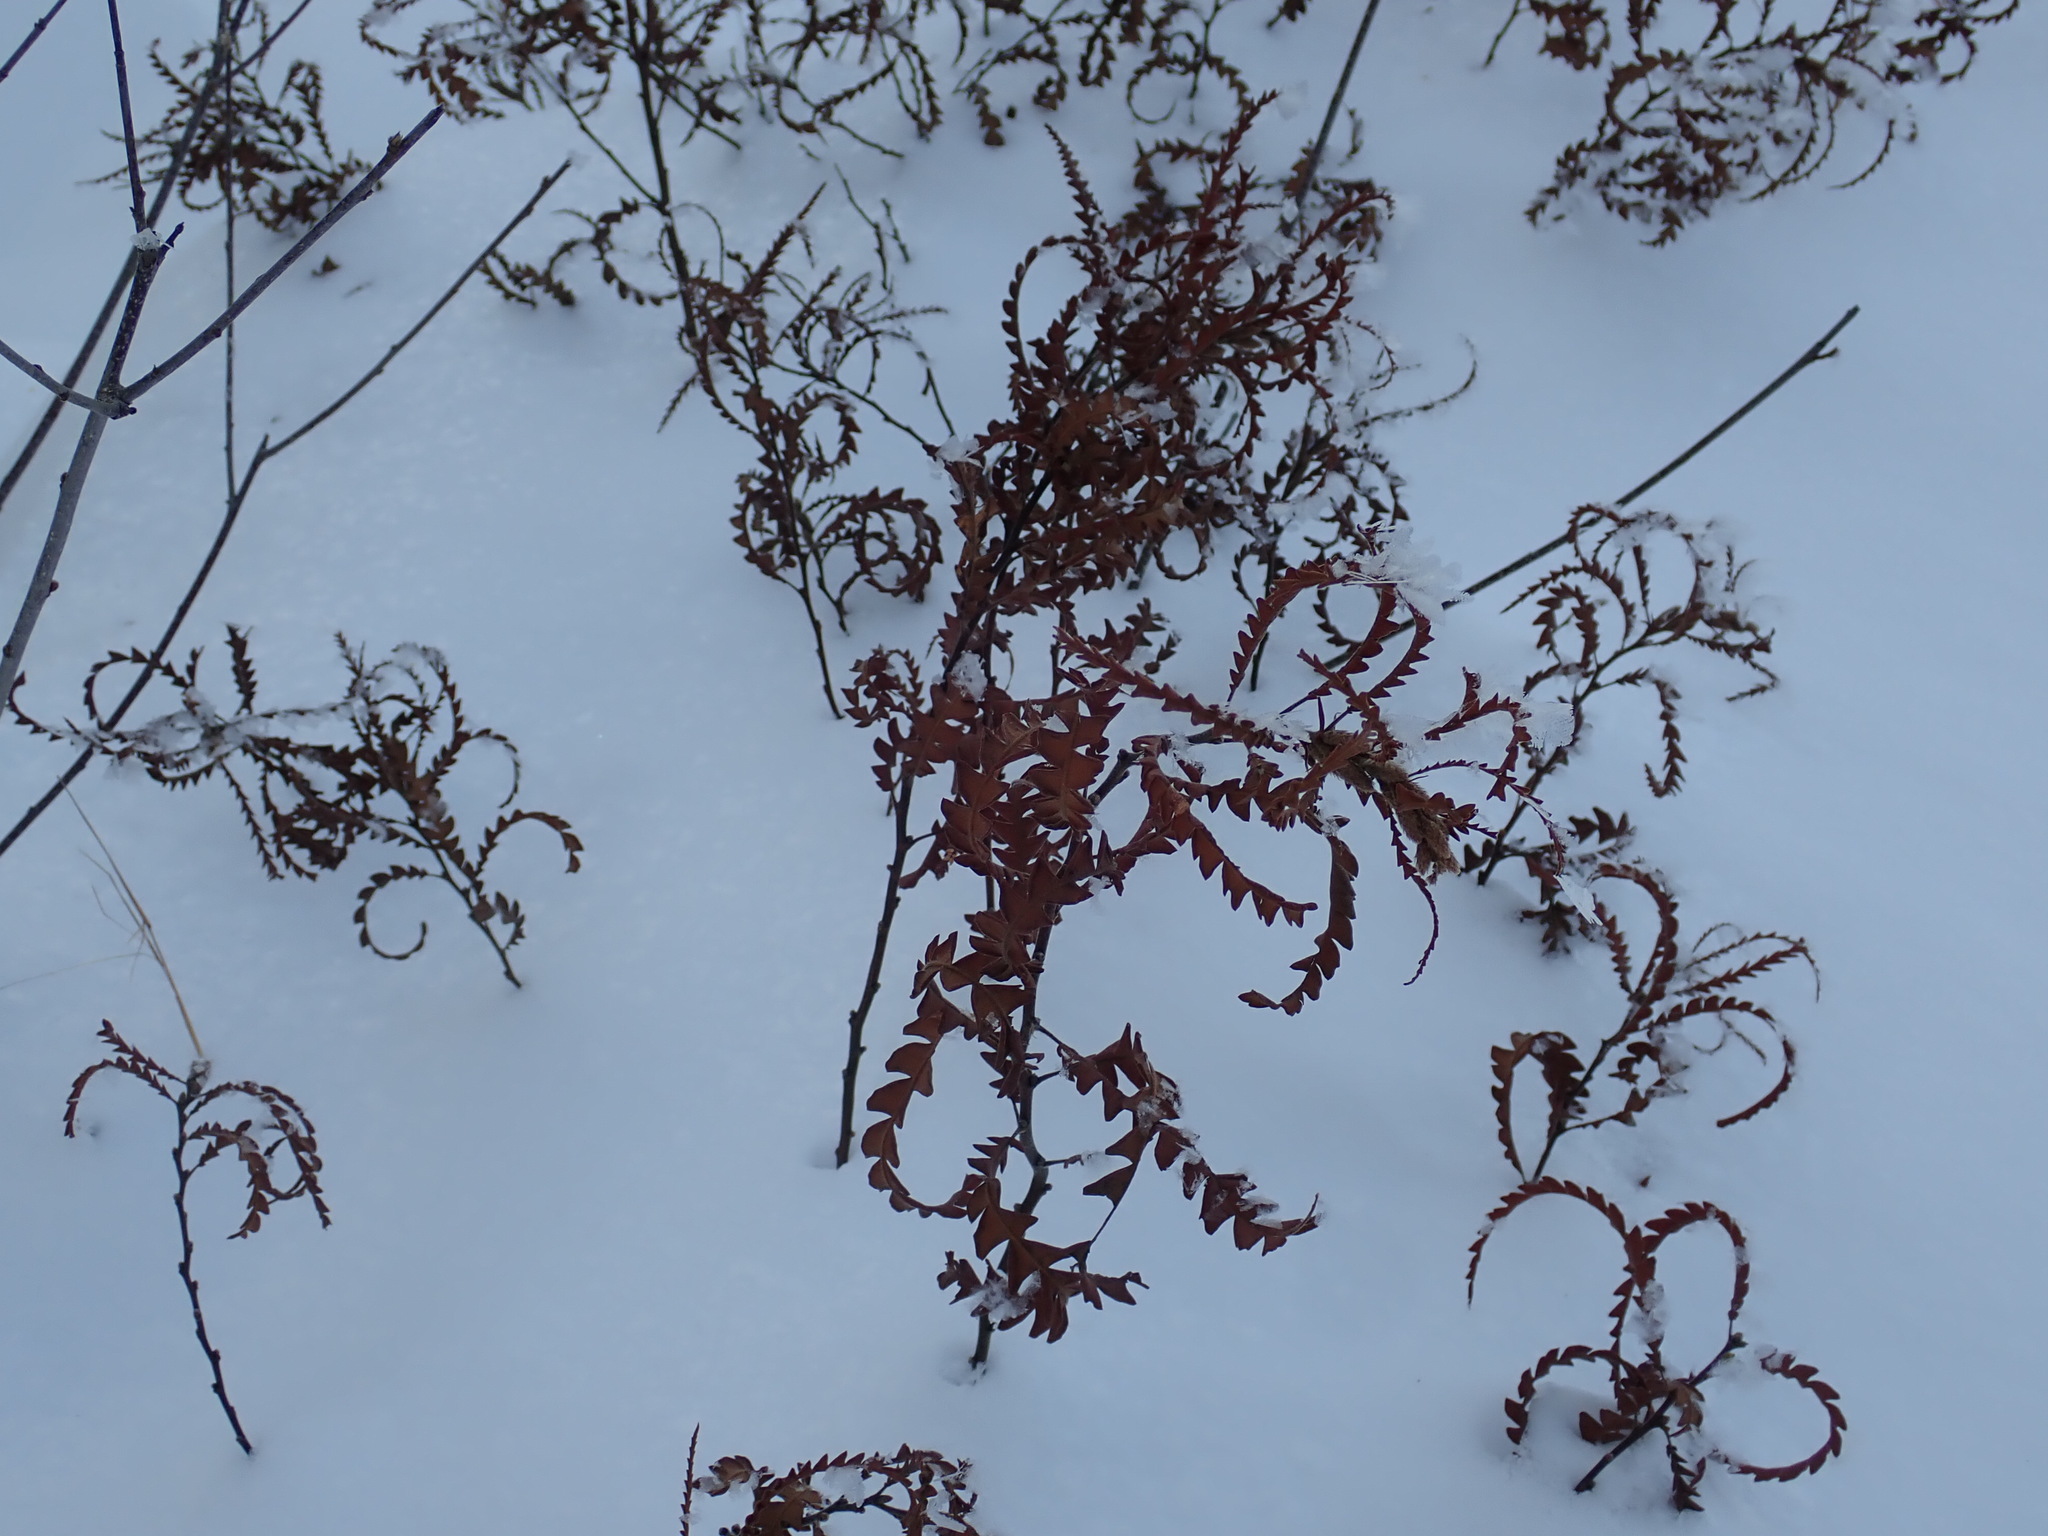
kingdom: Plantae
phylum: Tracheophyta
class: Magnoliopsida
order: Fagales
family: Myricaceae
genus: Comptonia
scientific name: Comptonia peregrina
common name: Sweet-fern
